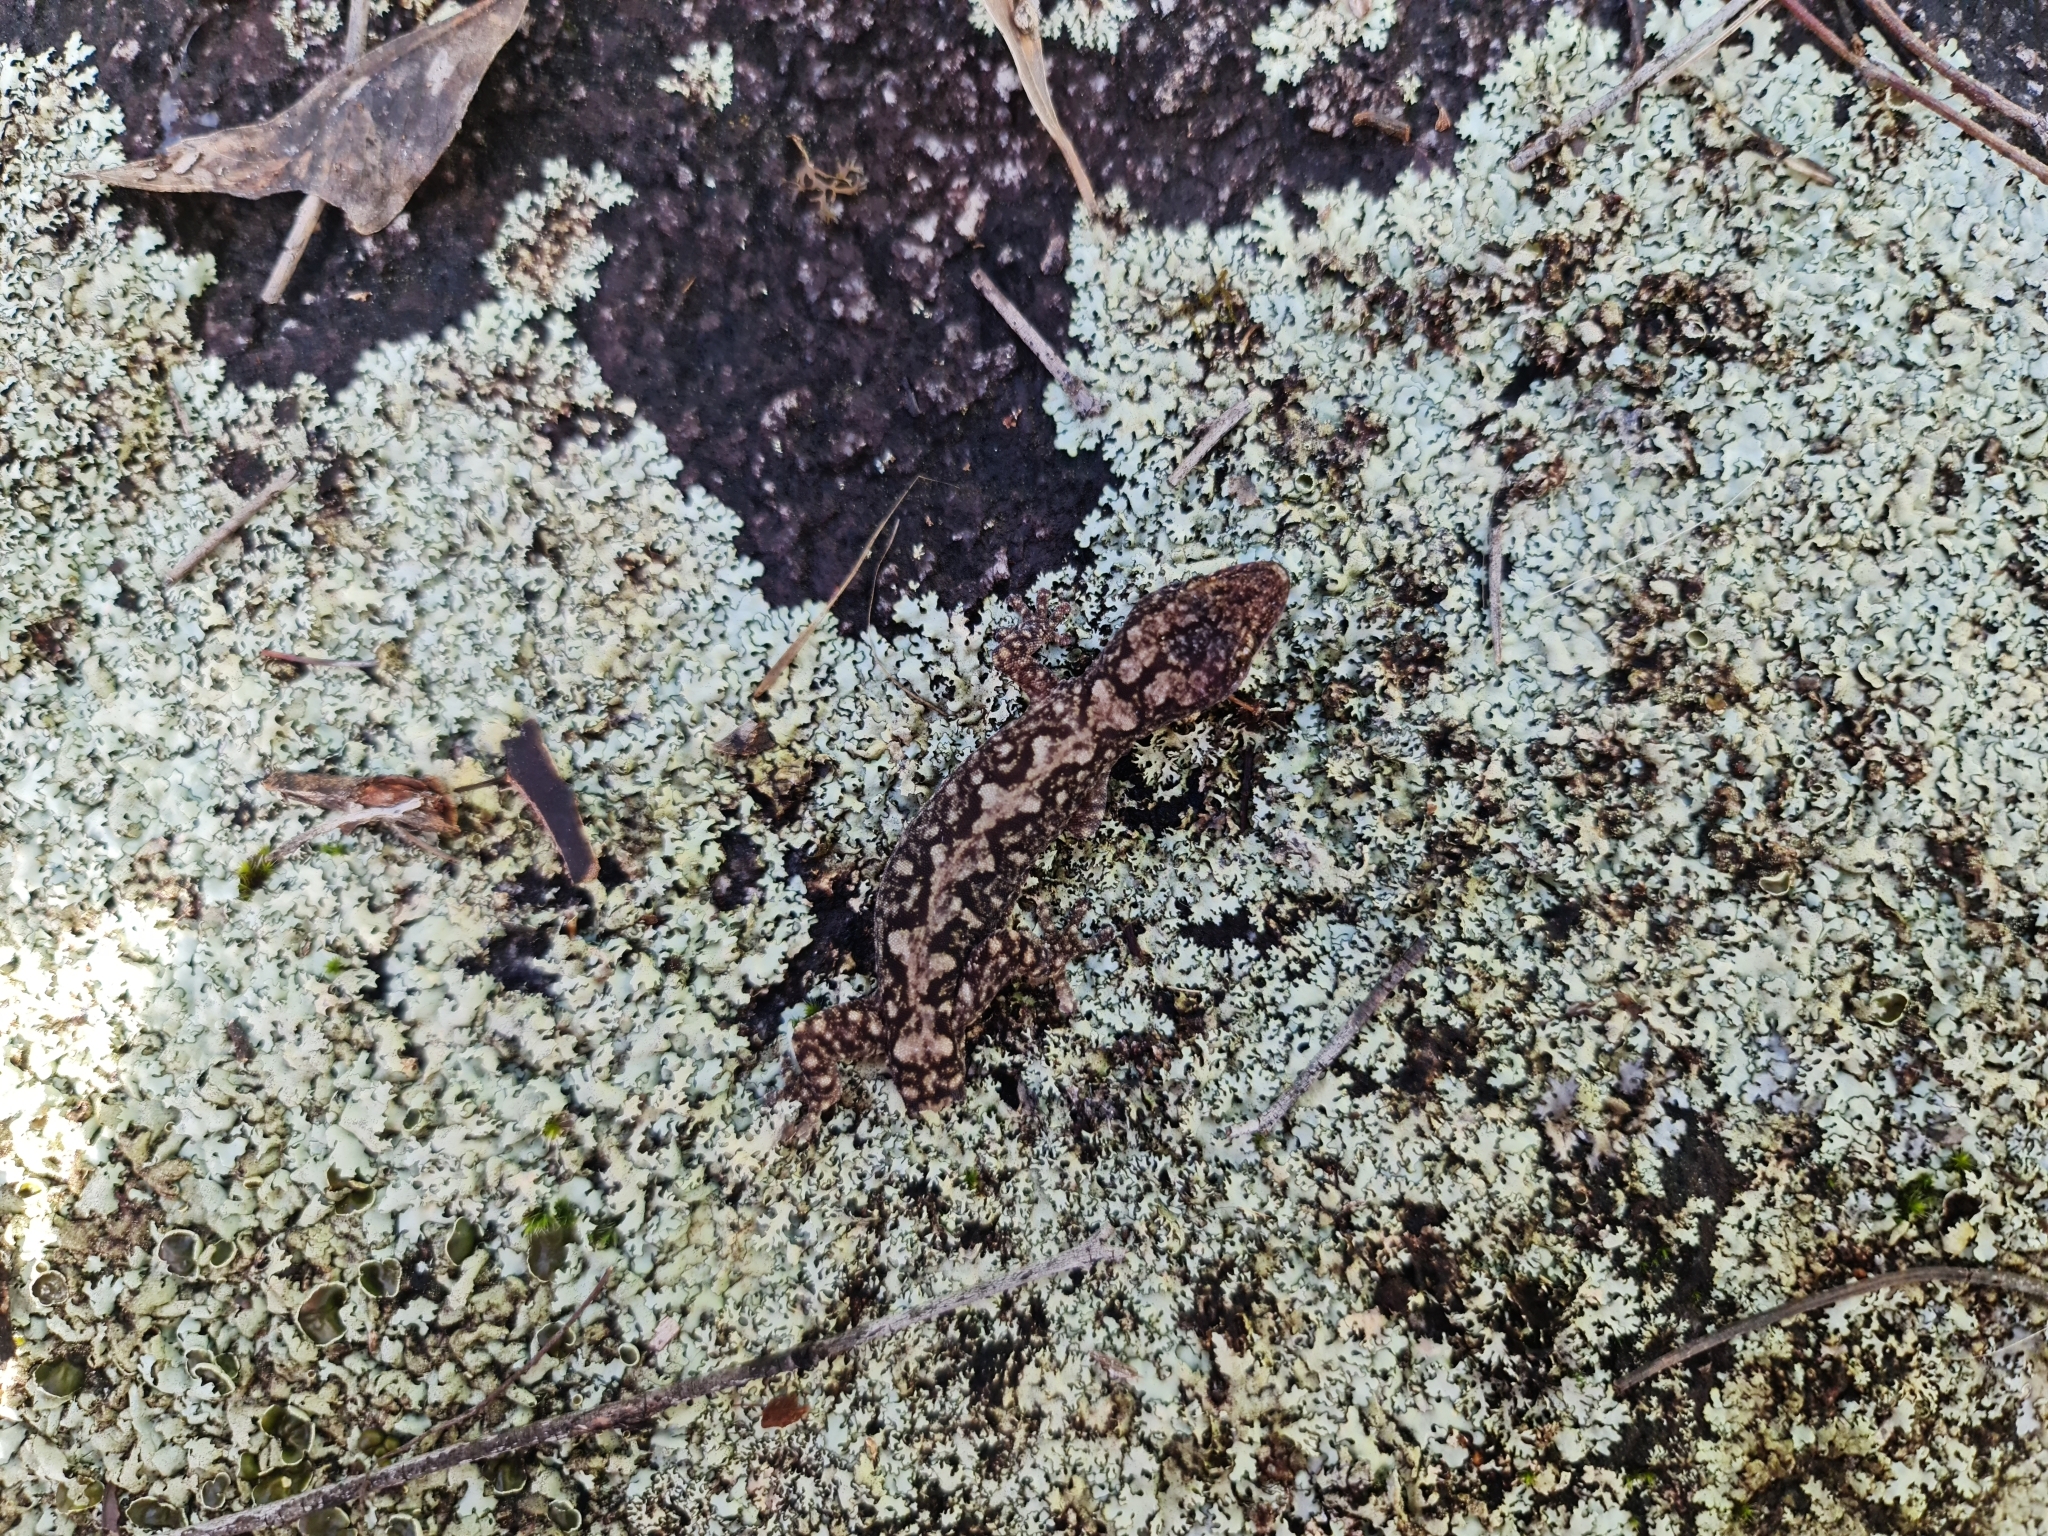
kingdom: Animalia
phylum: Chordata
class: Squamata
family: Diplodactylidae
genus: Amalosia
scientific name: Amalosia lesueurii
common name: Lesueur's gecko
